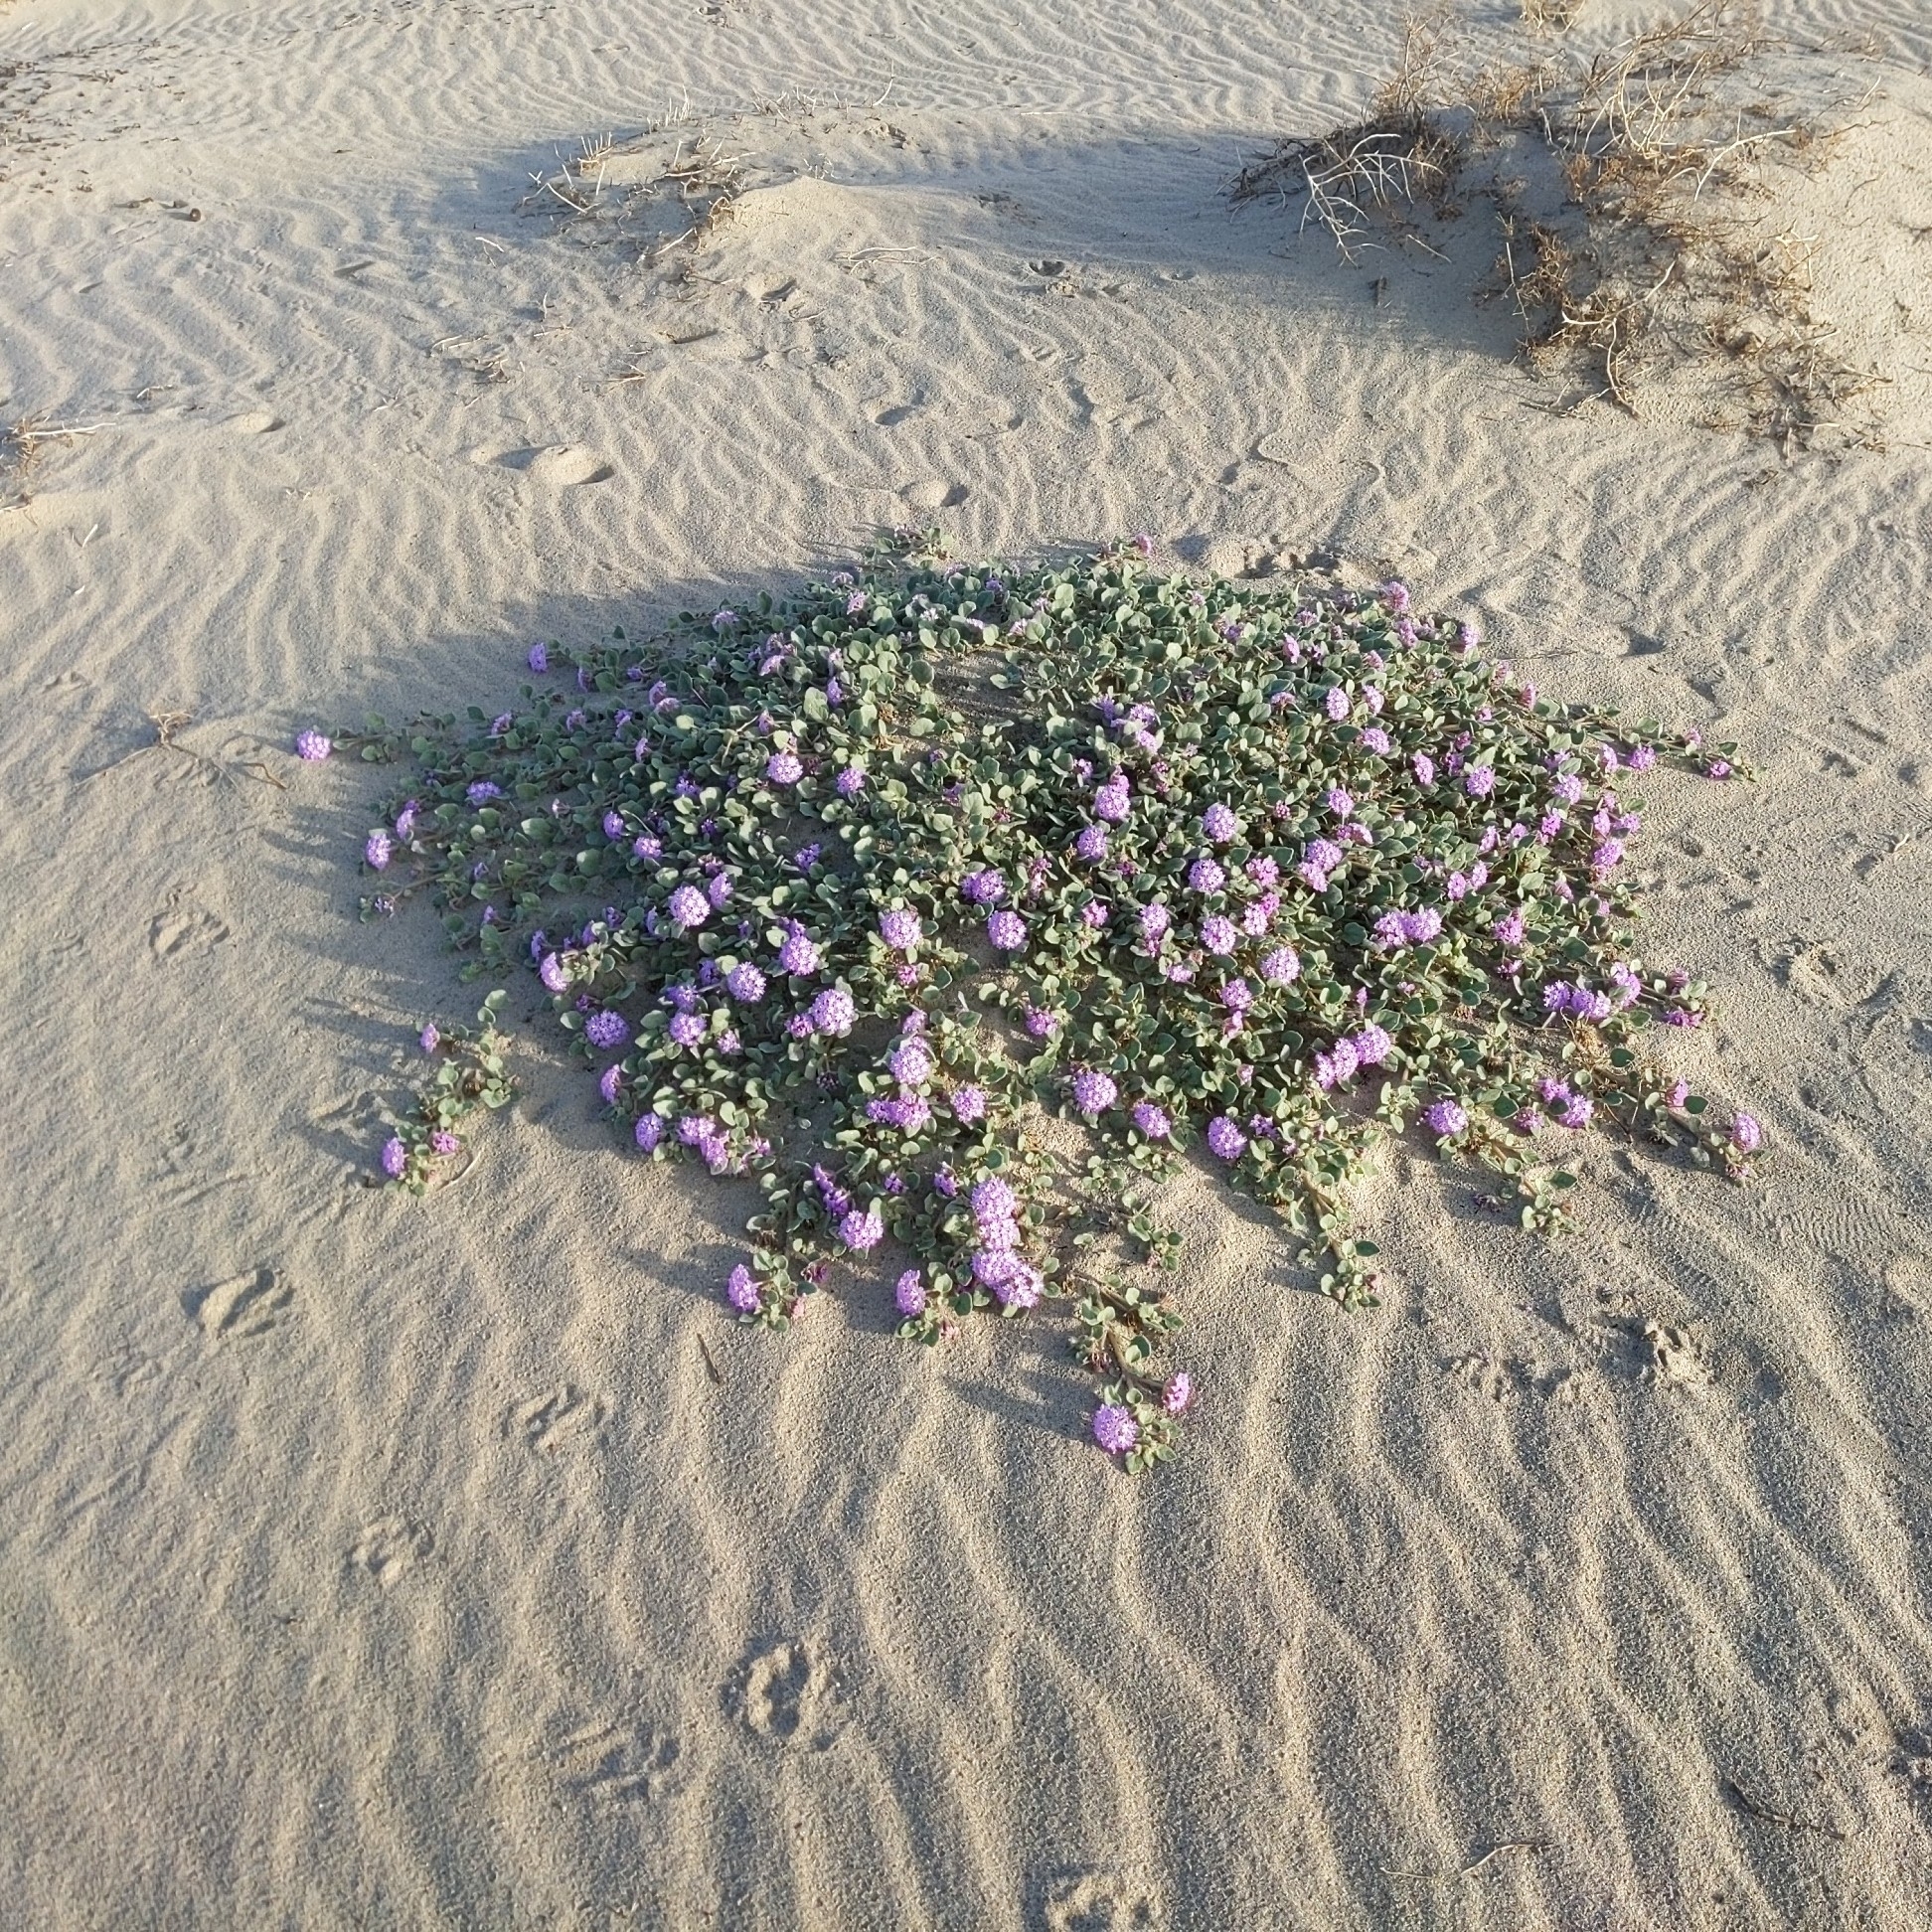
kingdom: Plantae
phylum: Tracheophyta
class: Magnoliopsida
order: Caryophyllales
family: Nyctaginaceae
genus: Abronia
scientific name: Abronia villosa
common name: Desert sand-verbena
